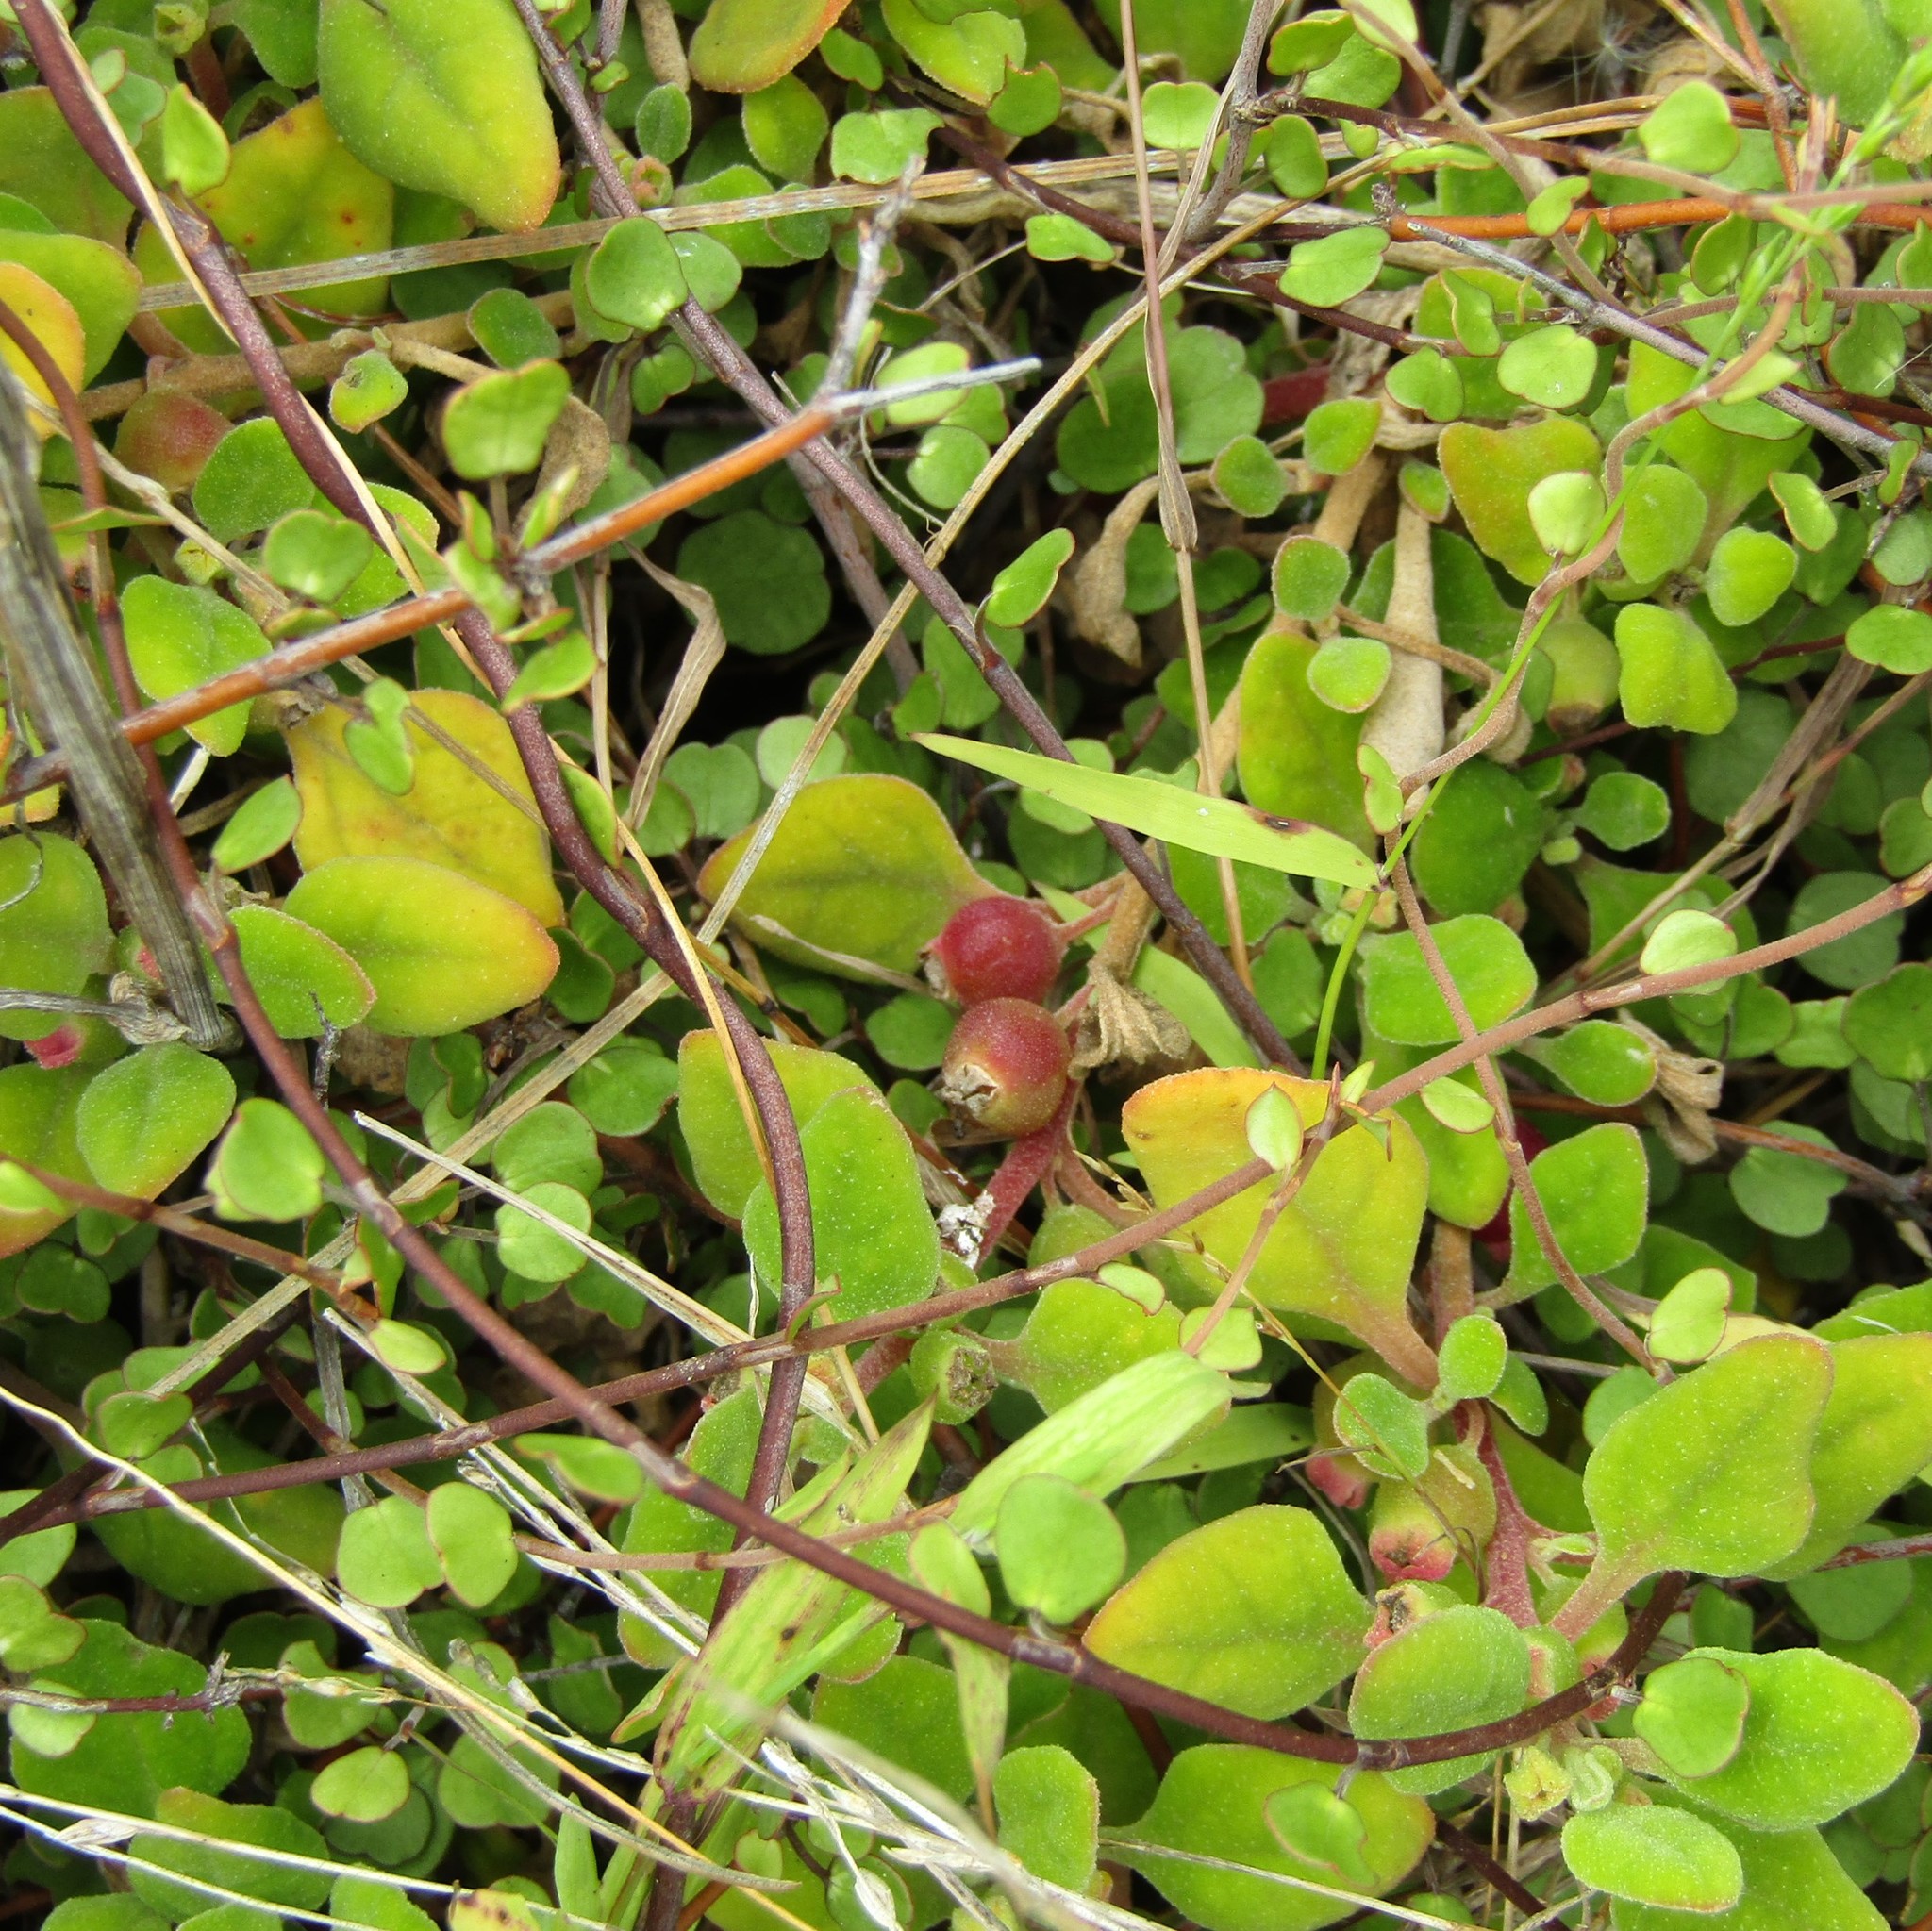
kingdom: Plantae
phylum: Tracheophyta
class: Magnoliopsida
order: Caryophyllales
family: Aizoaceae
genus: Tetragonia
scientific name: Tetragonia implexicoma
